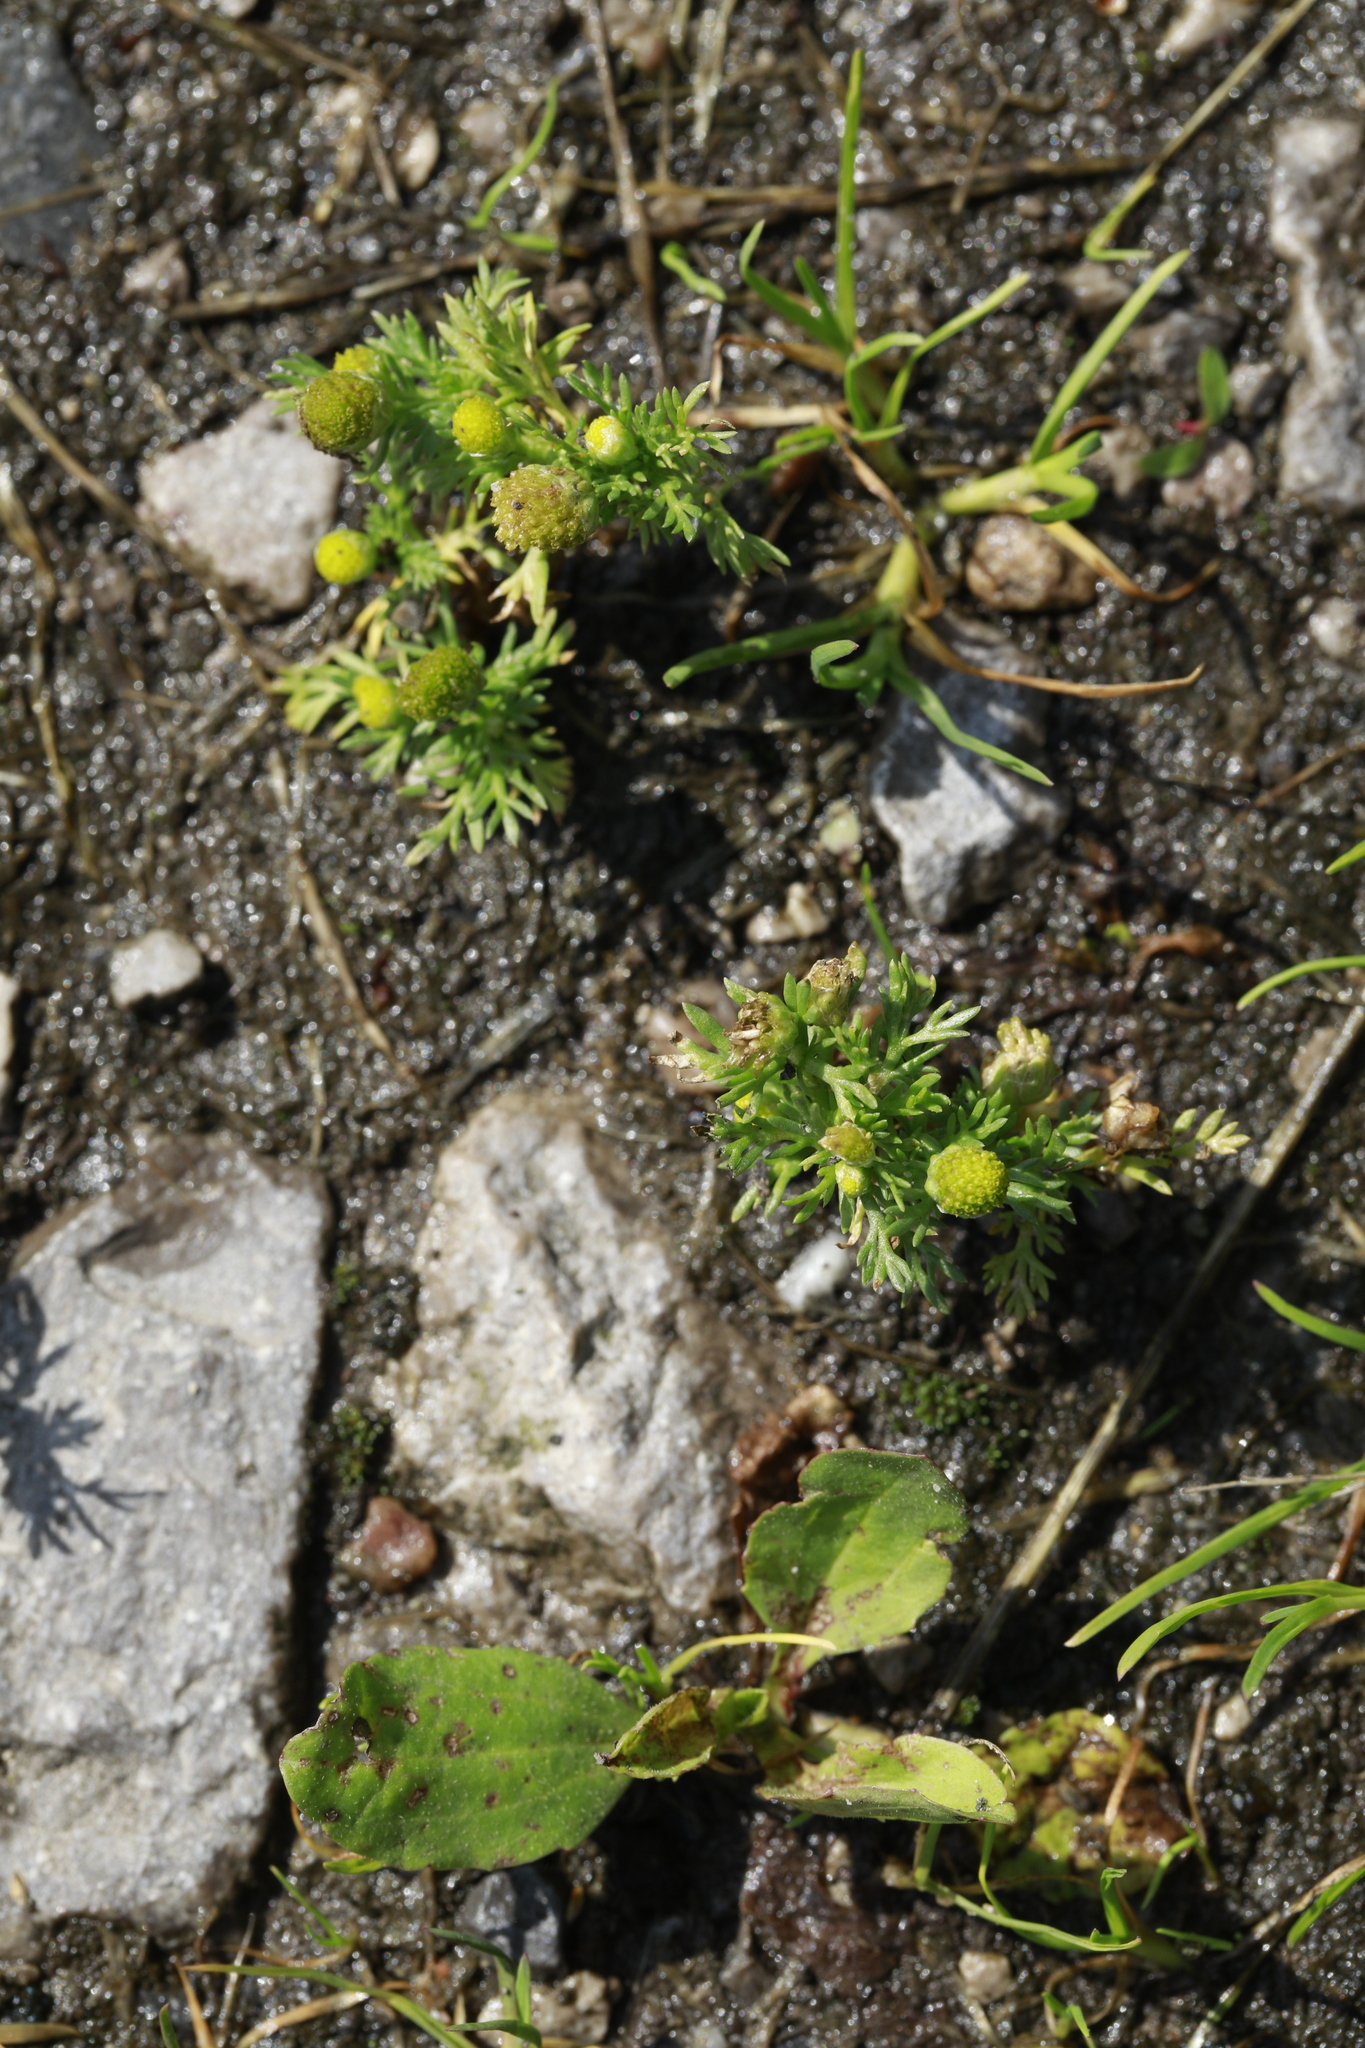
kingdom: Plantae
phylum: Tracheophyta
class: Magnoliopsida
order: Asterales
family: Asteraceae
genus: Matricaria
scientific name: Matricaria discoidea
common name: Disc mayweed
